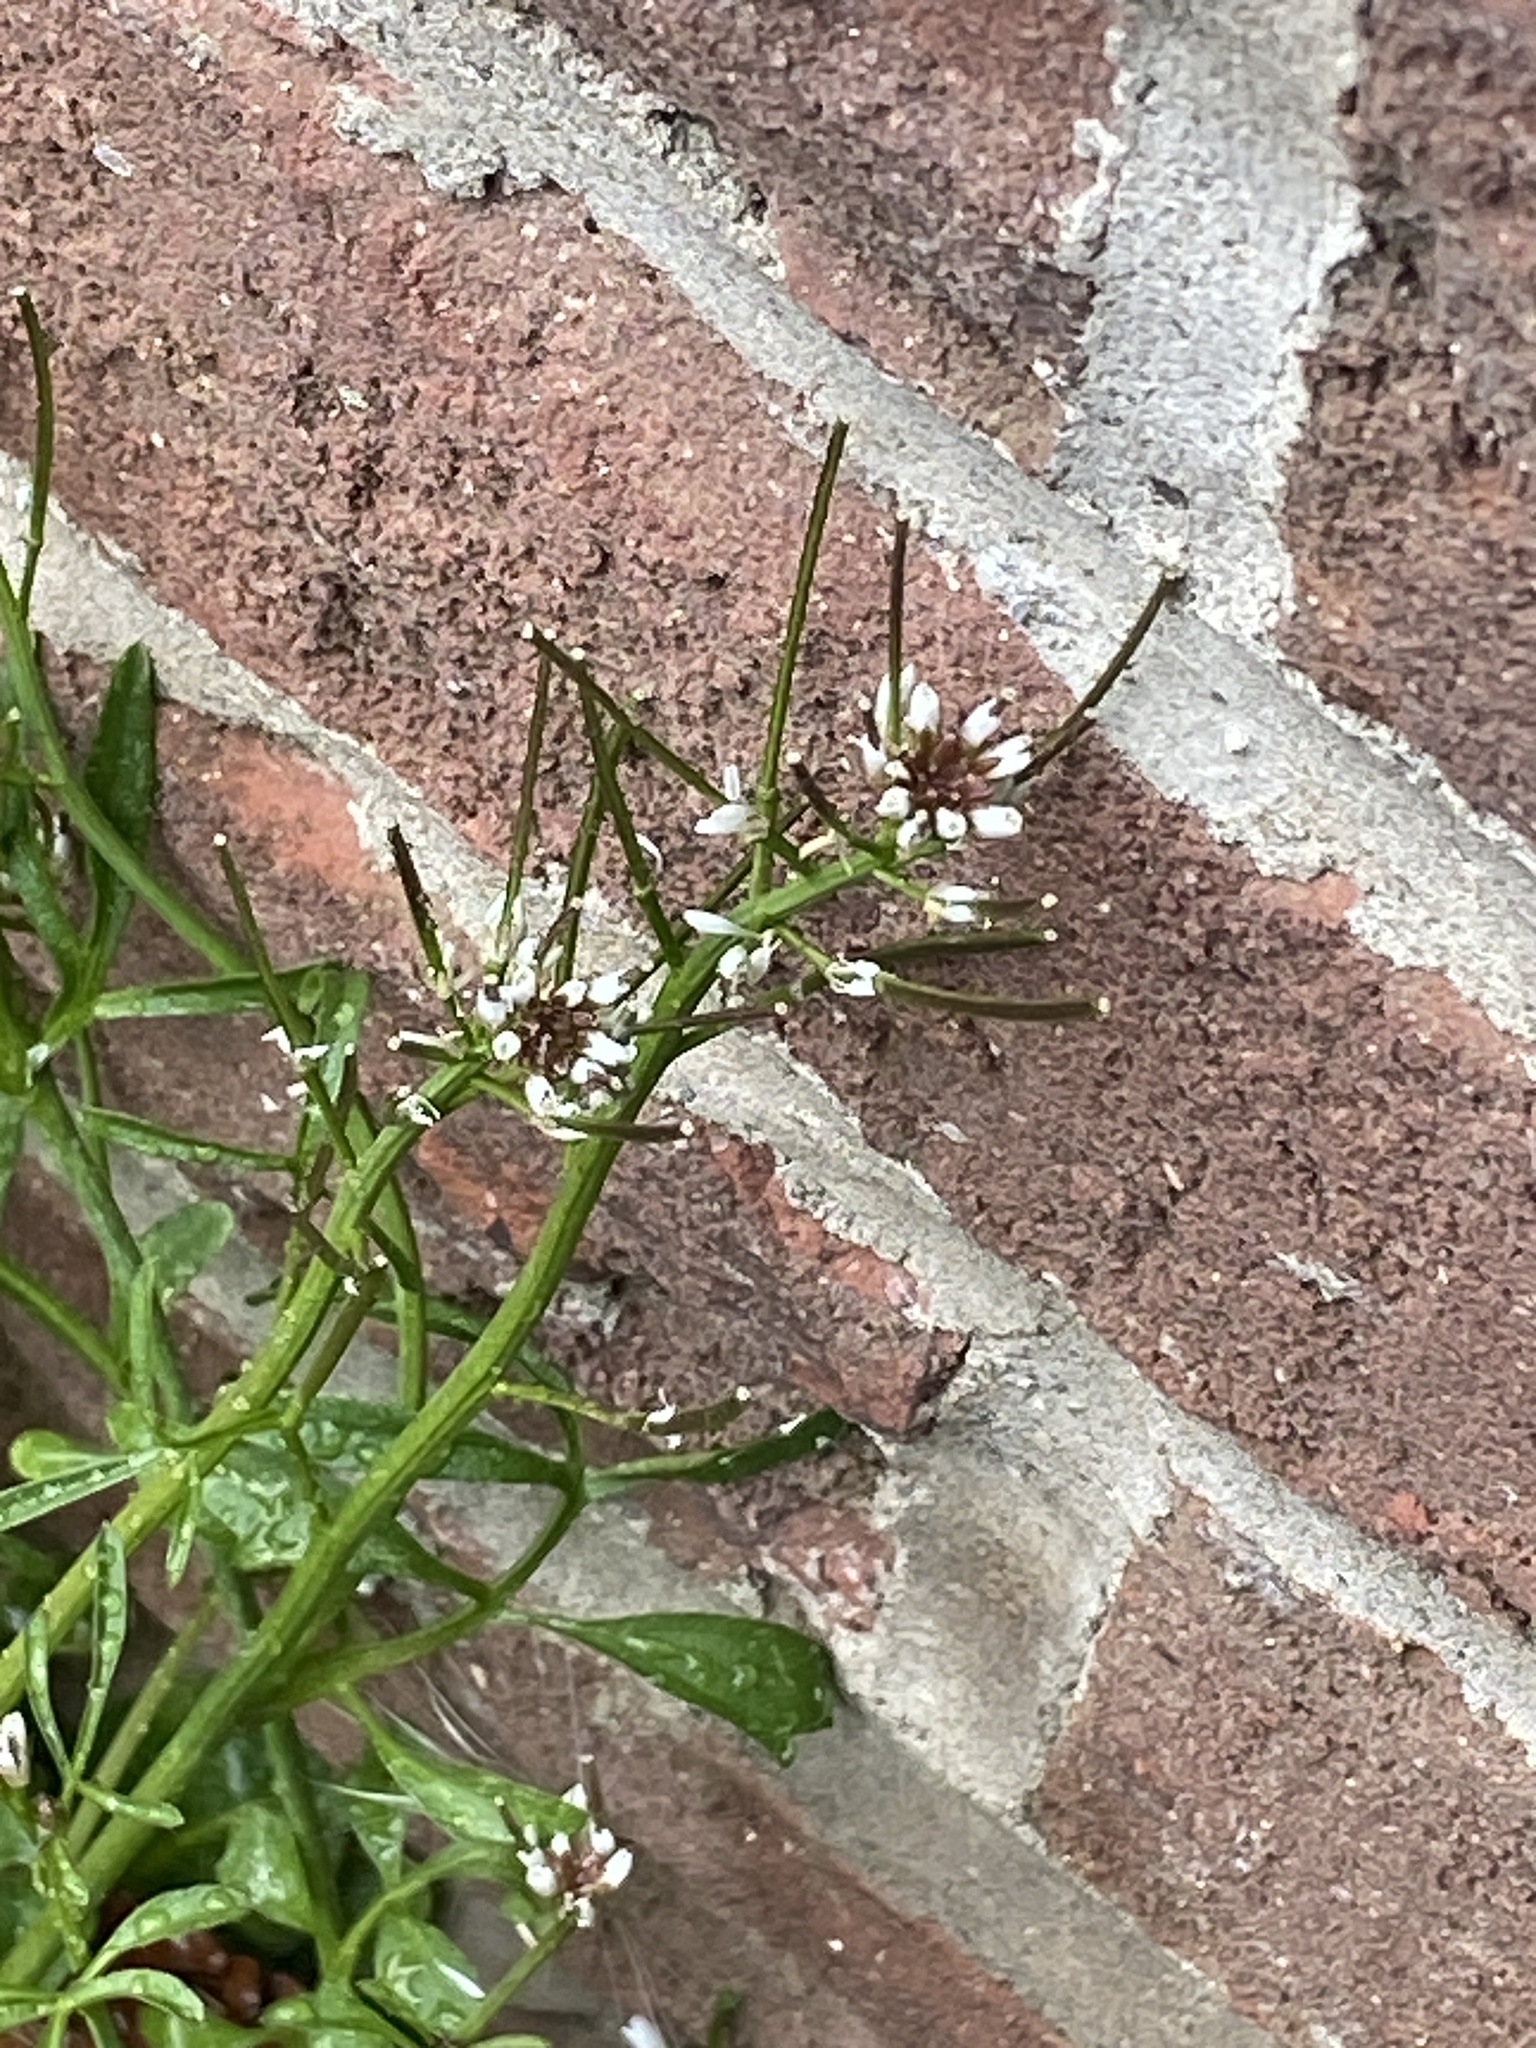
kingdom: Plantae
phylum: Tracheophyta
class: Magnoliopsida
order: Brassicales
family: Brassicaceae
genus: Cardamine
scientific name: Cardamine hirsuta
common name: Hairy bittercress
